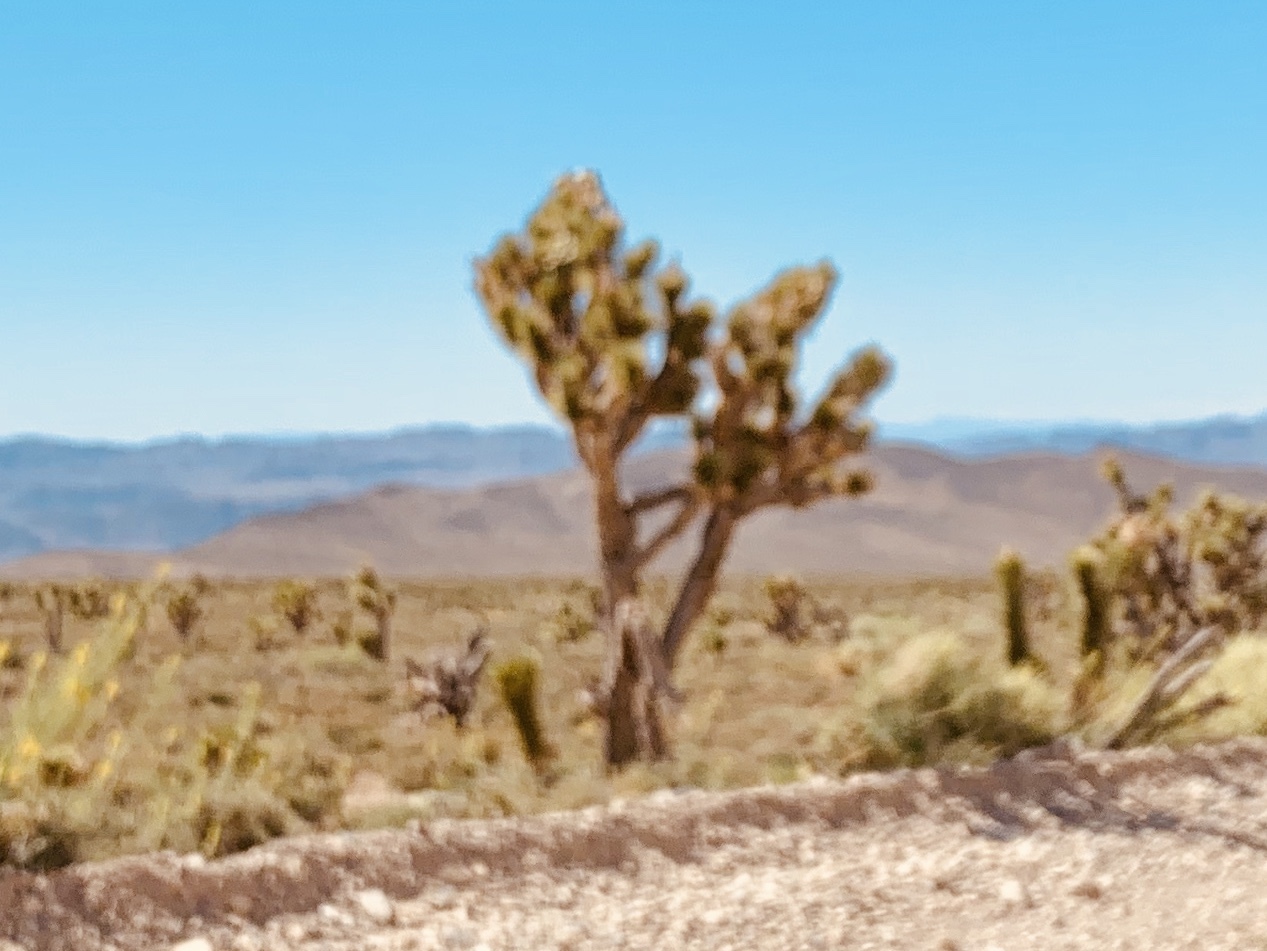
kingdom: Plantae
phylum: Tracheophyta
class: Liliopsida
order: Asparagales
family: Asparagaceae
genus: Yucca
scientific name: Yucca brevifolia
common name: Joshua tree
